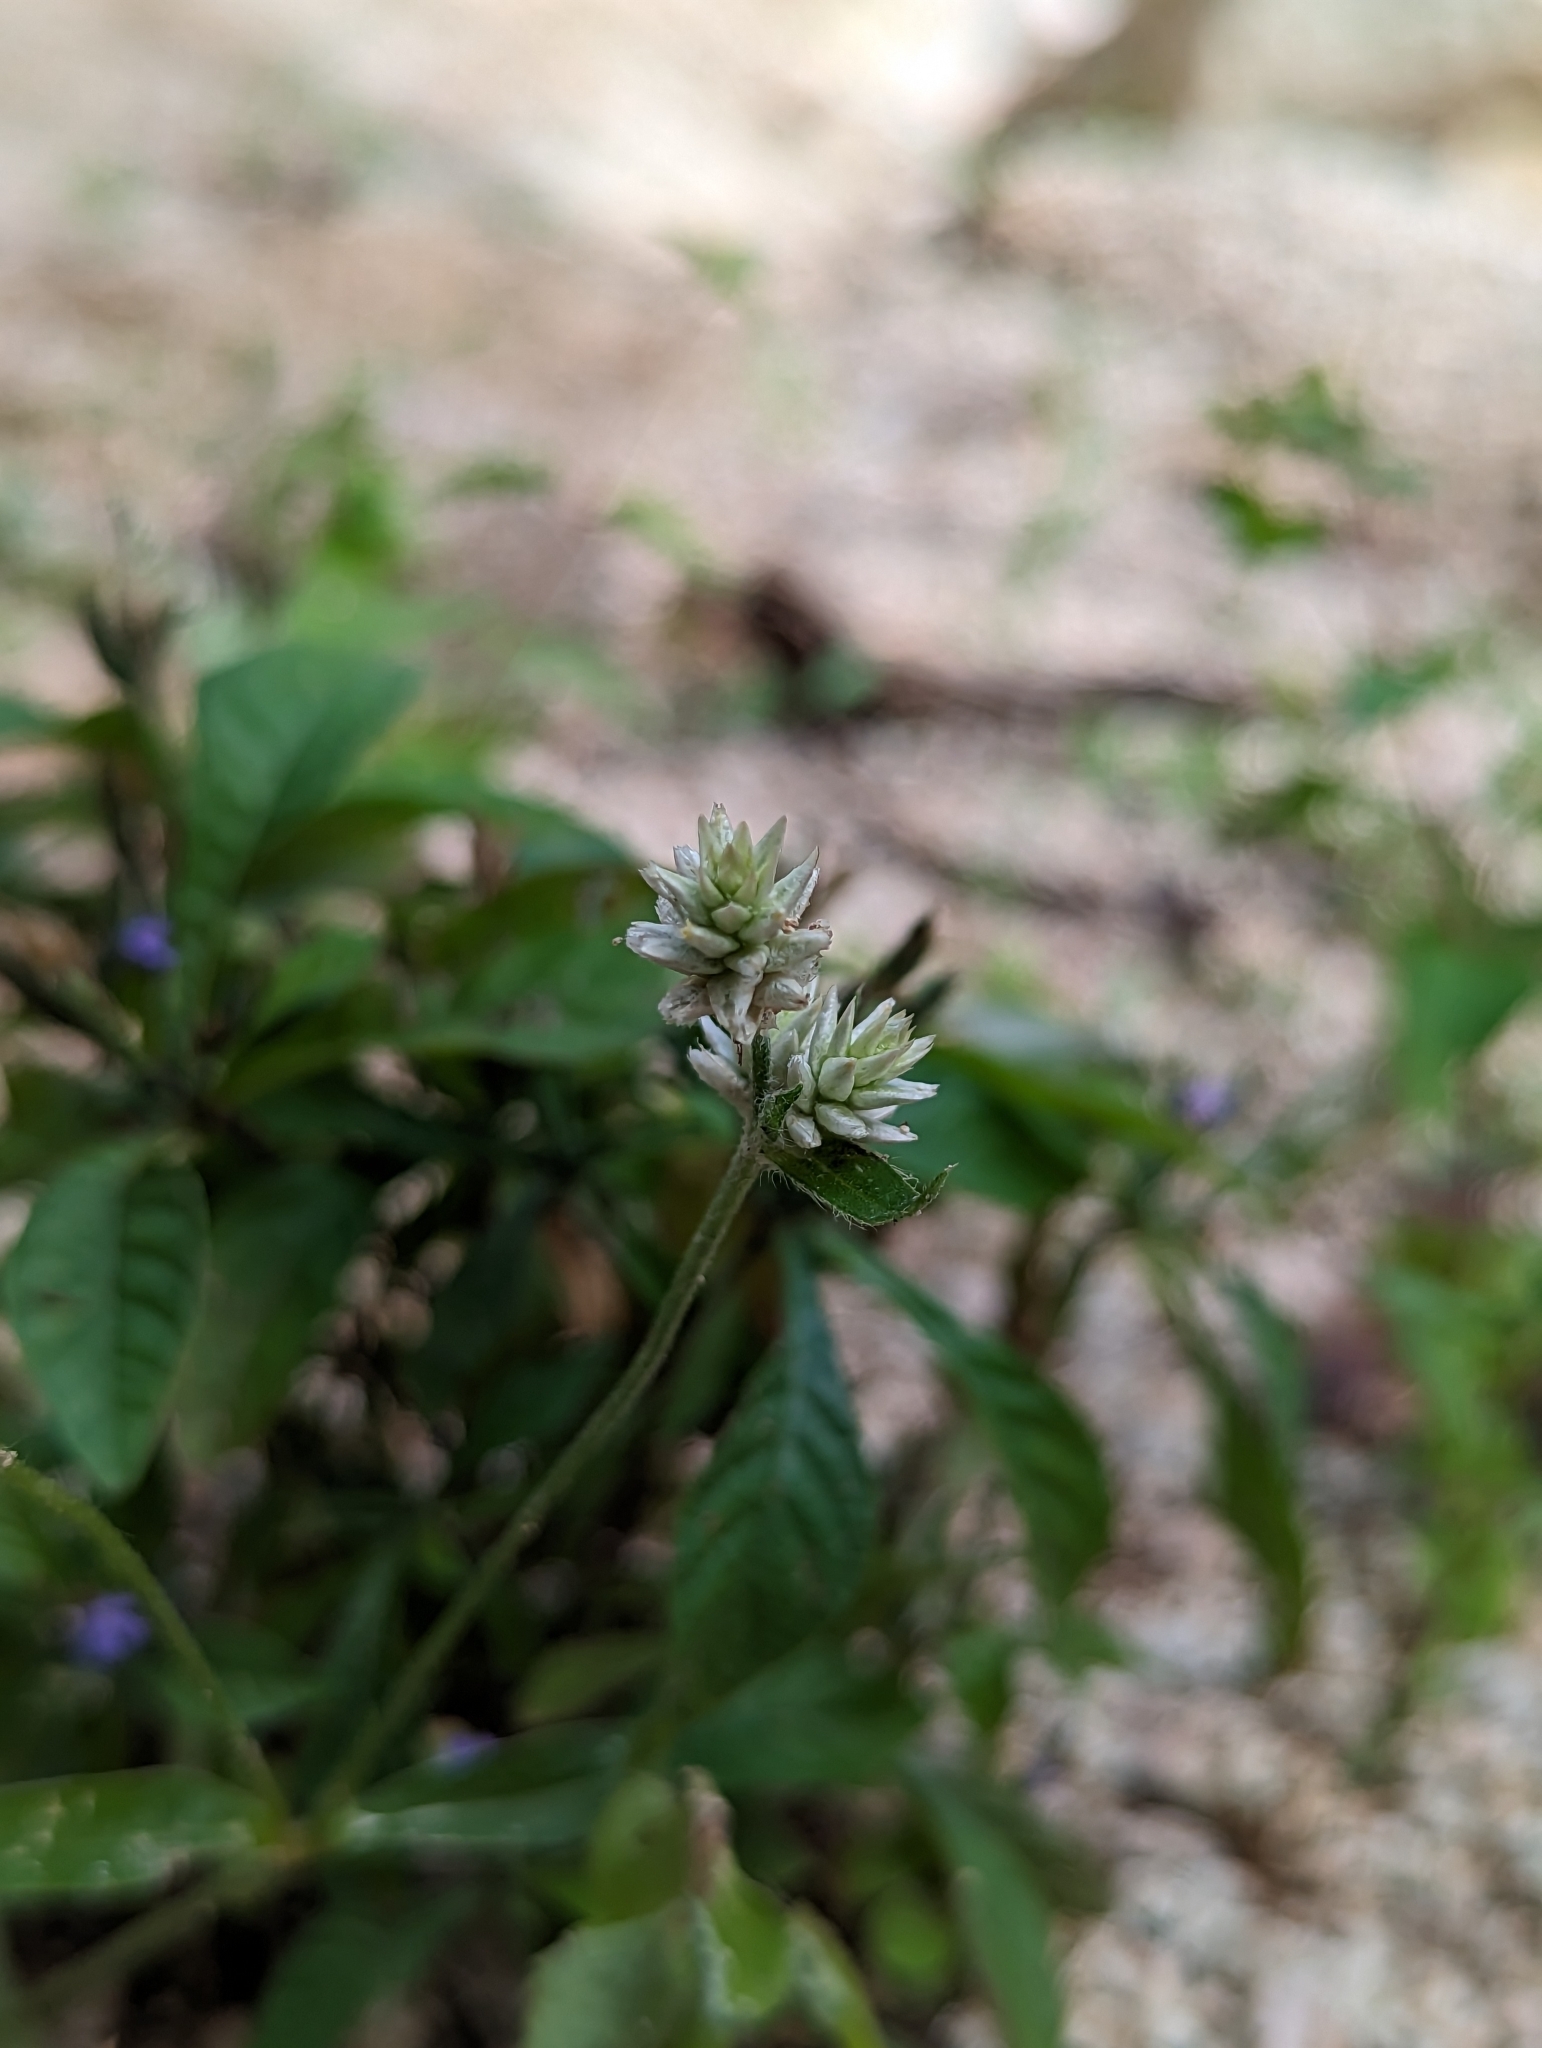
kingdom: Plantae
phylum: Tracheophyta
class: Magnoliopsida
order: Caryophyllales
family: Amaranthaceae
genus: Gomphrena
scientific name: Gomphrena sonorae
